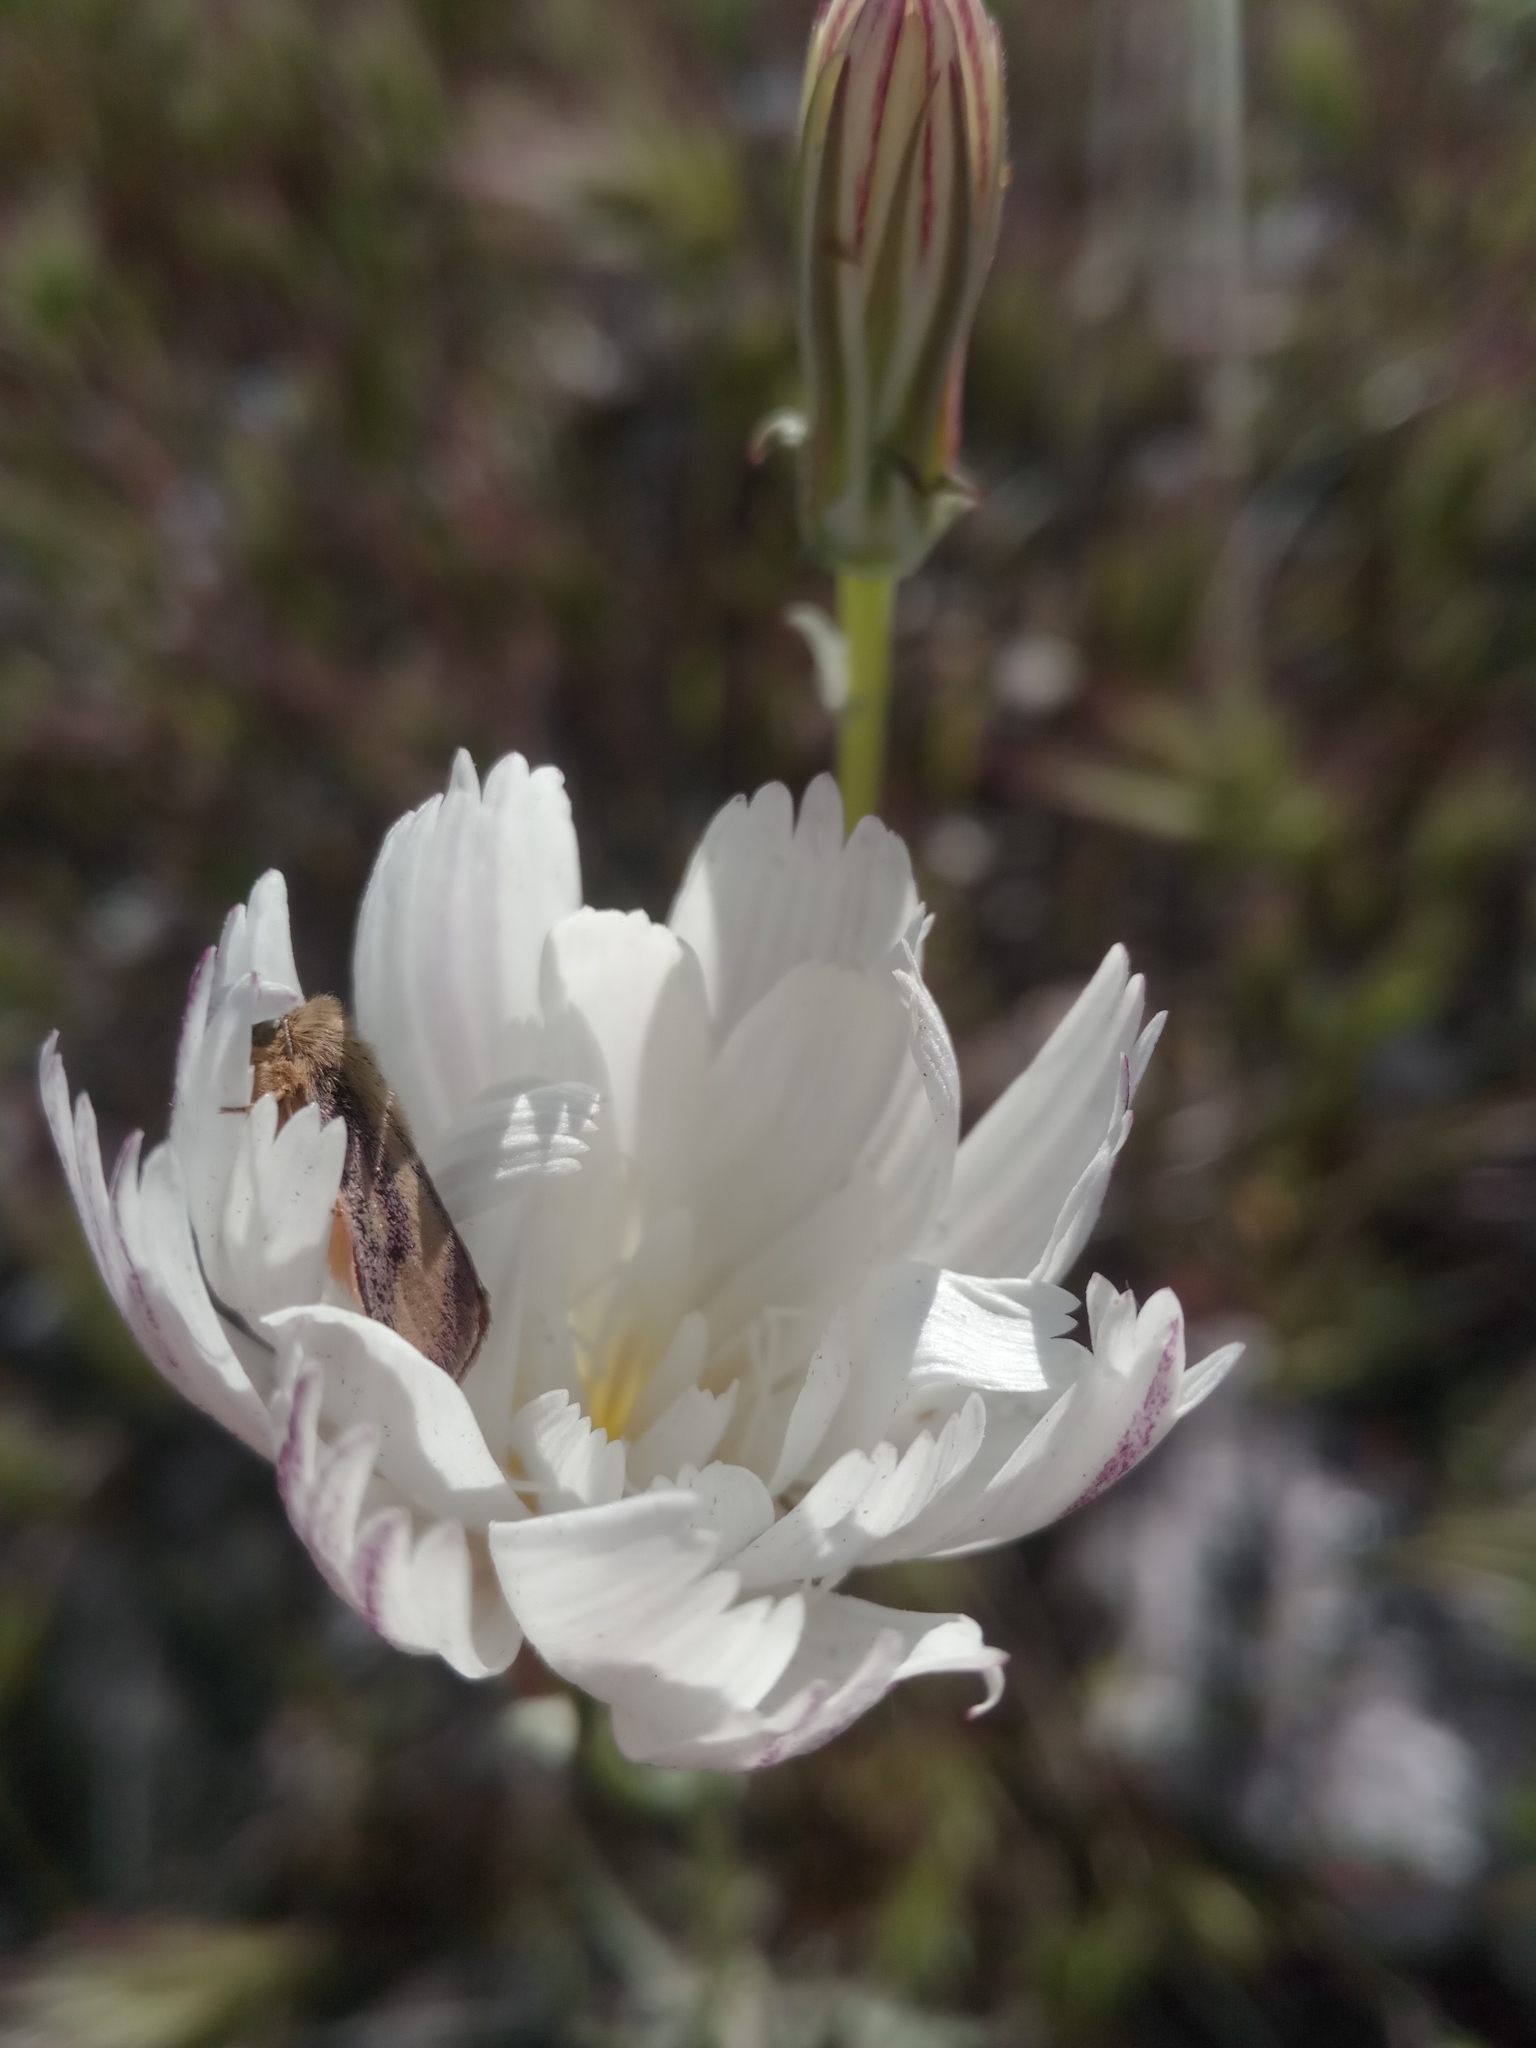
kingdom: Plantae
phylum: Tracheophyta
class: Magnoliopsida
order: Asterales
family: Asteraceae
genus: Rafinesquia
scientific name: Rafinesquia neomexicana
